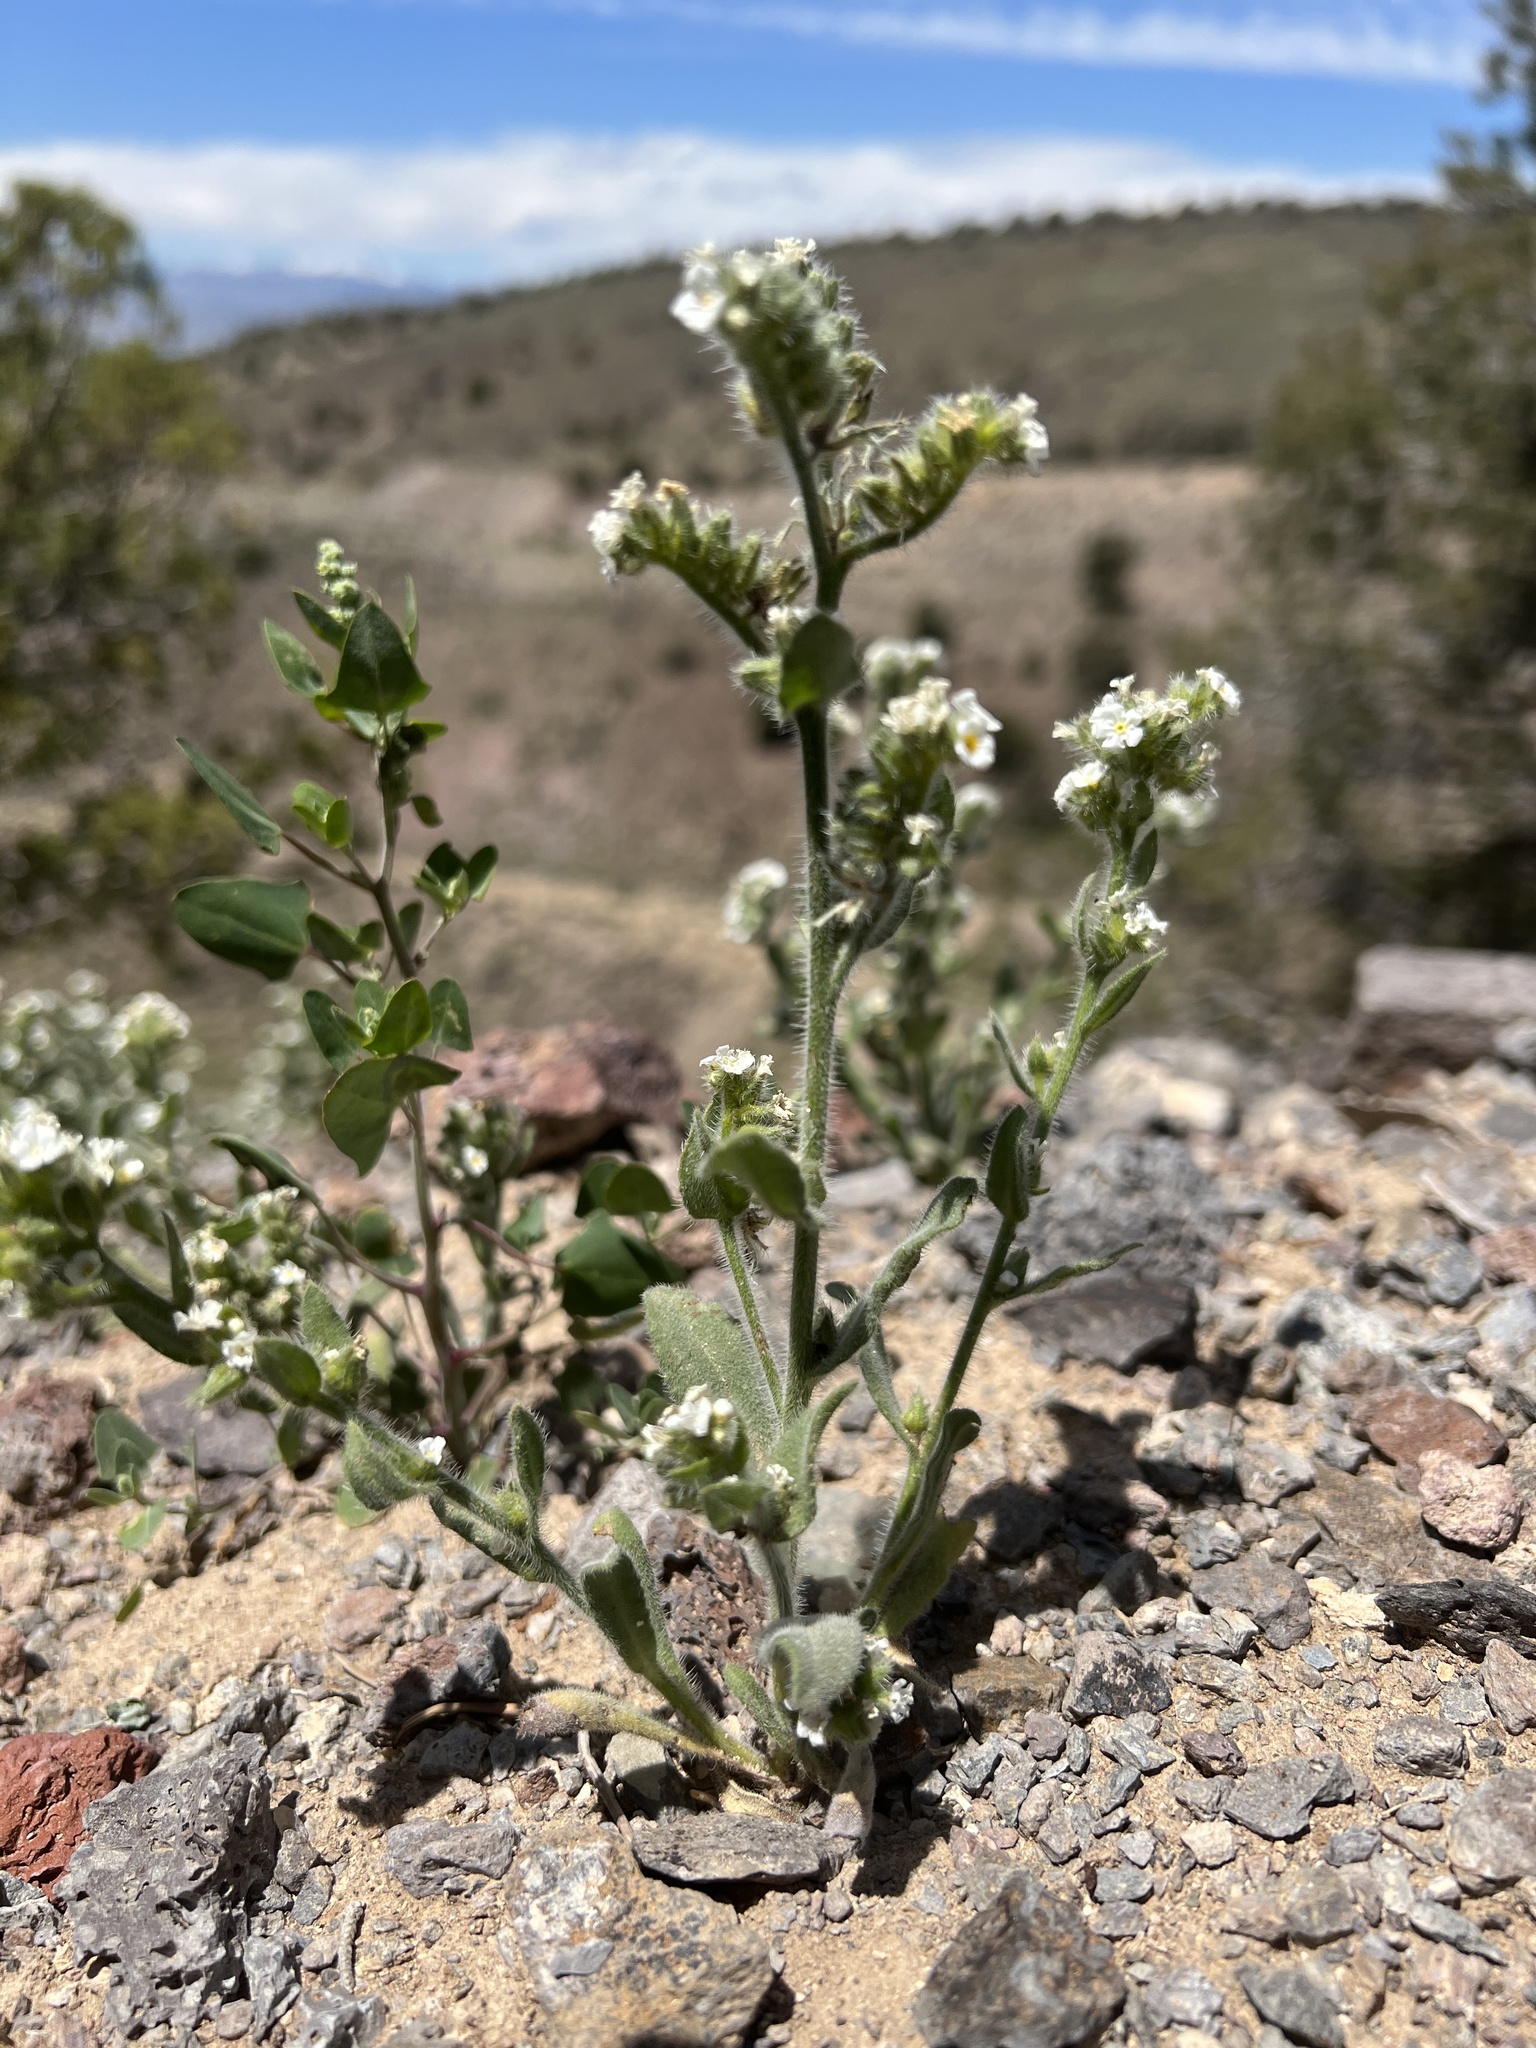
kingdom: Plantae
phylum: Tracheophyta
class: Magnoliopsida
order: Boraginales
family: Boraginaceae
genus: Amsinckiopsis
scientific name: Amsinckiopsis kingii
